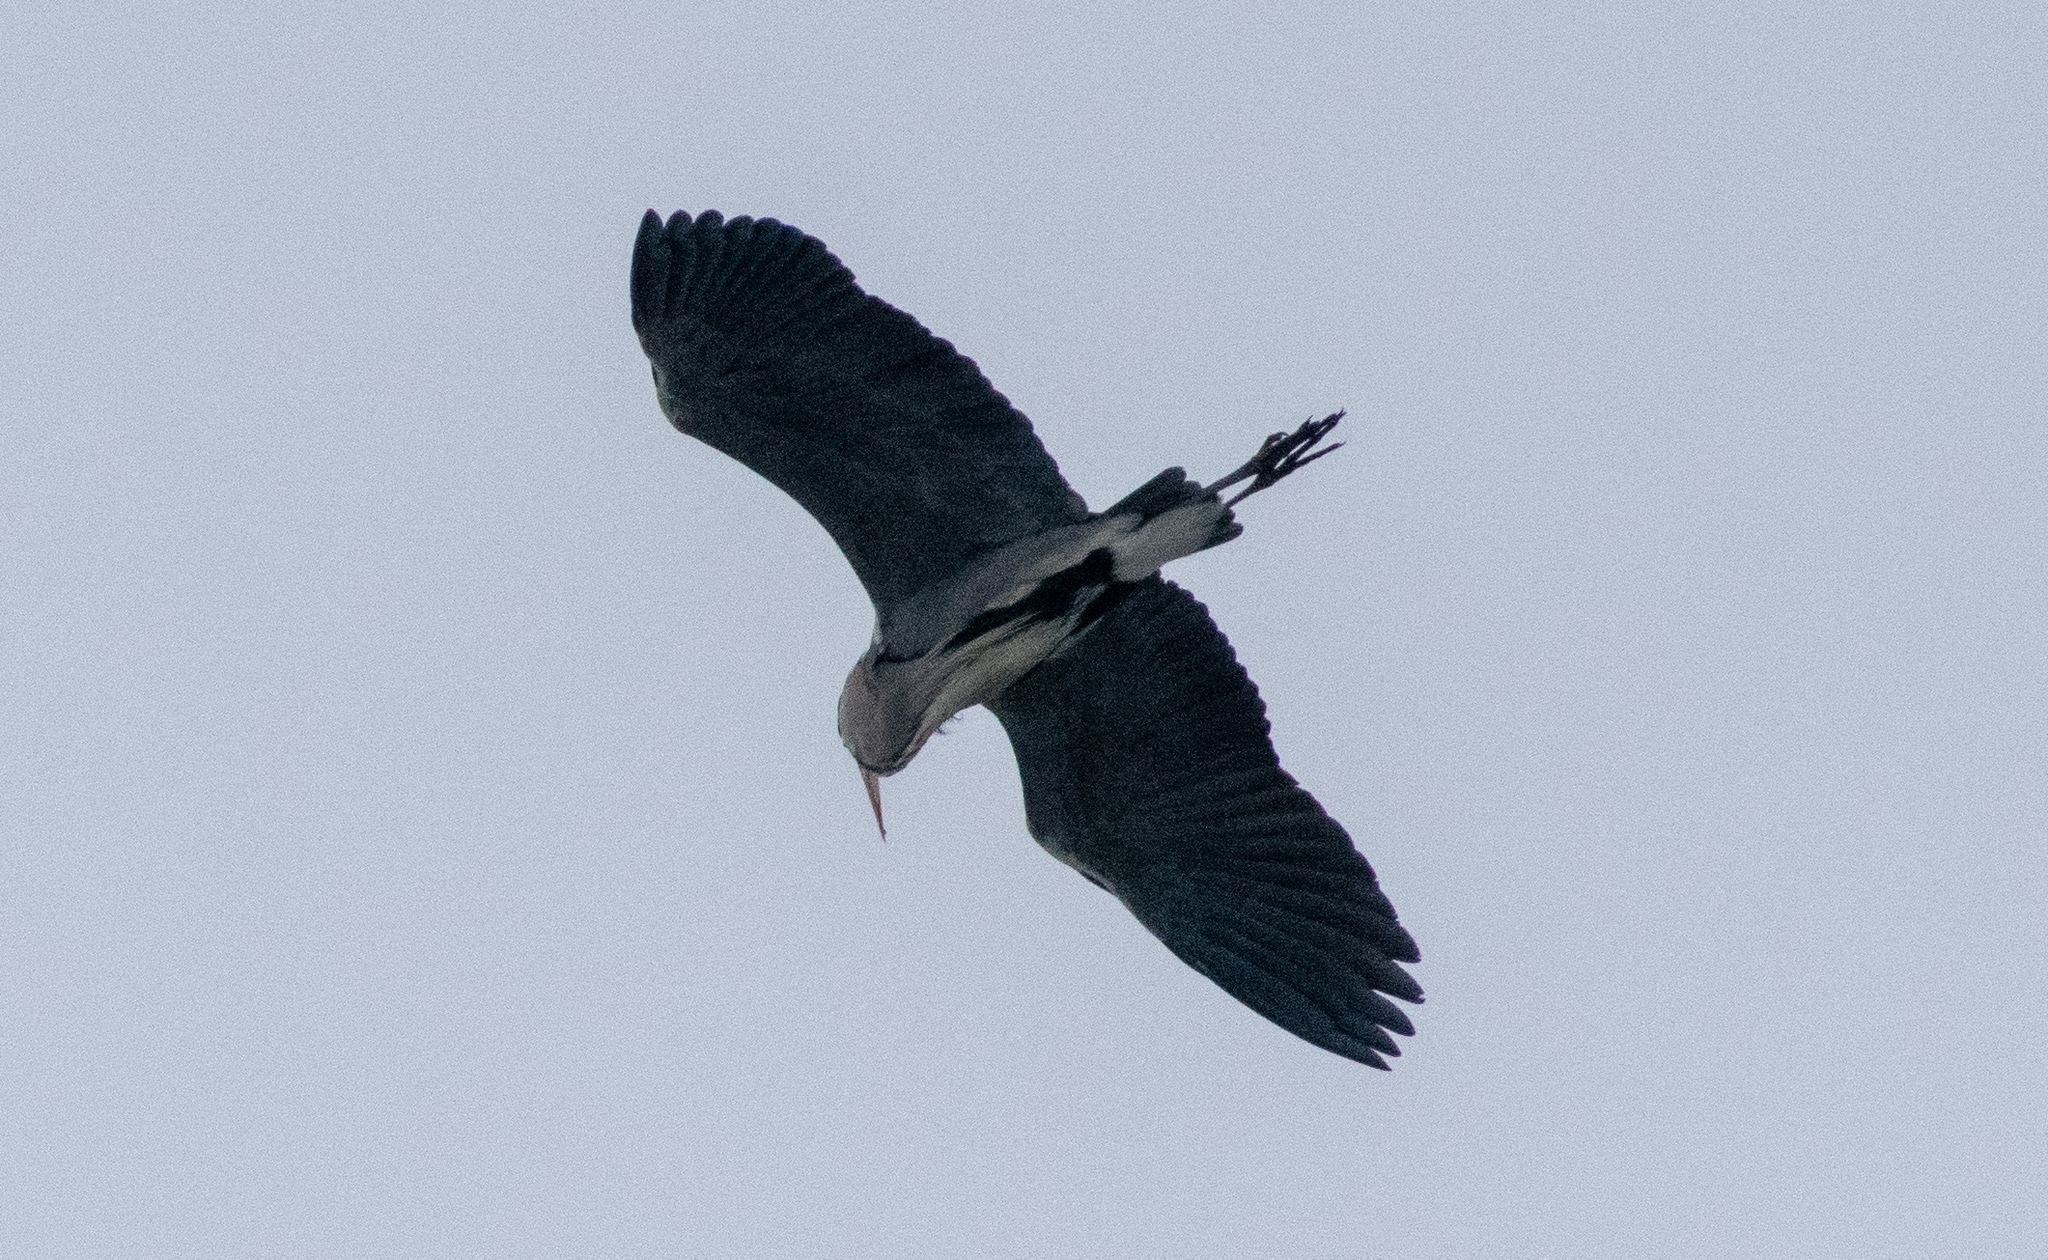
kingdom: Animalia
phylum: Chordata
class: Aves
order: Pelecaniformes
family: Ardeidae
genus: Ardea
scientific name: Ardea cinerea
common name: Grey heron
